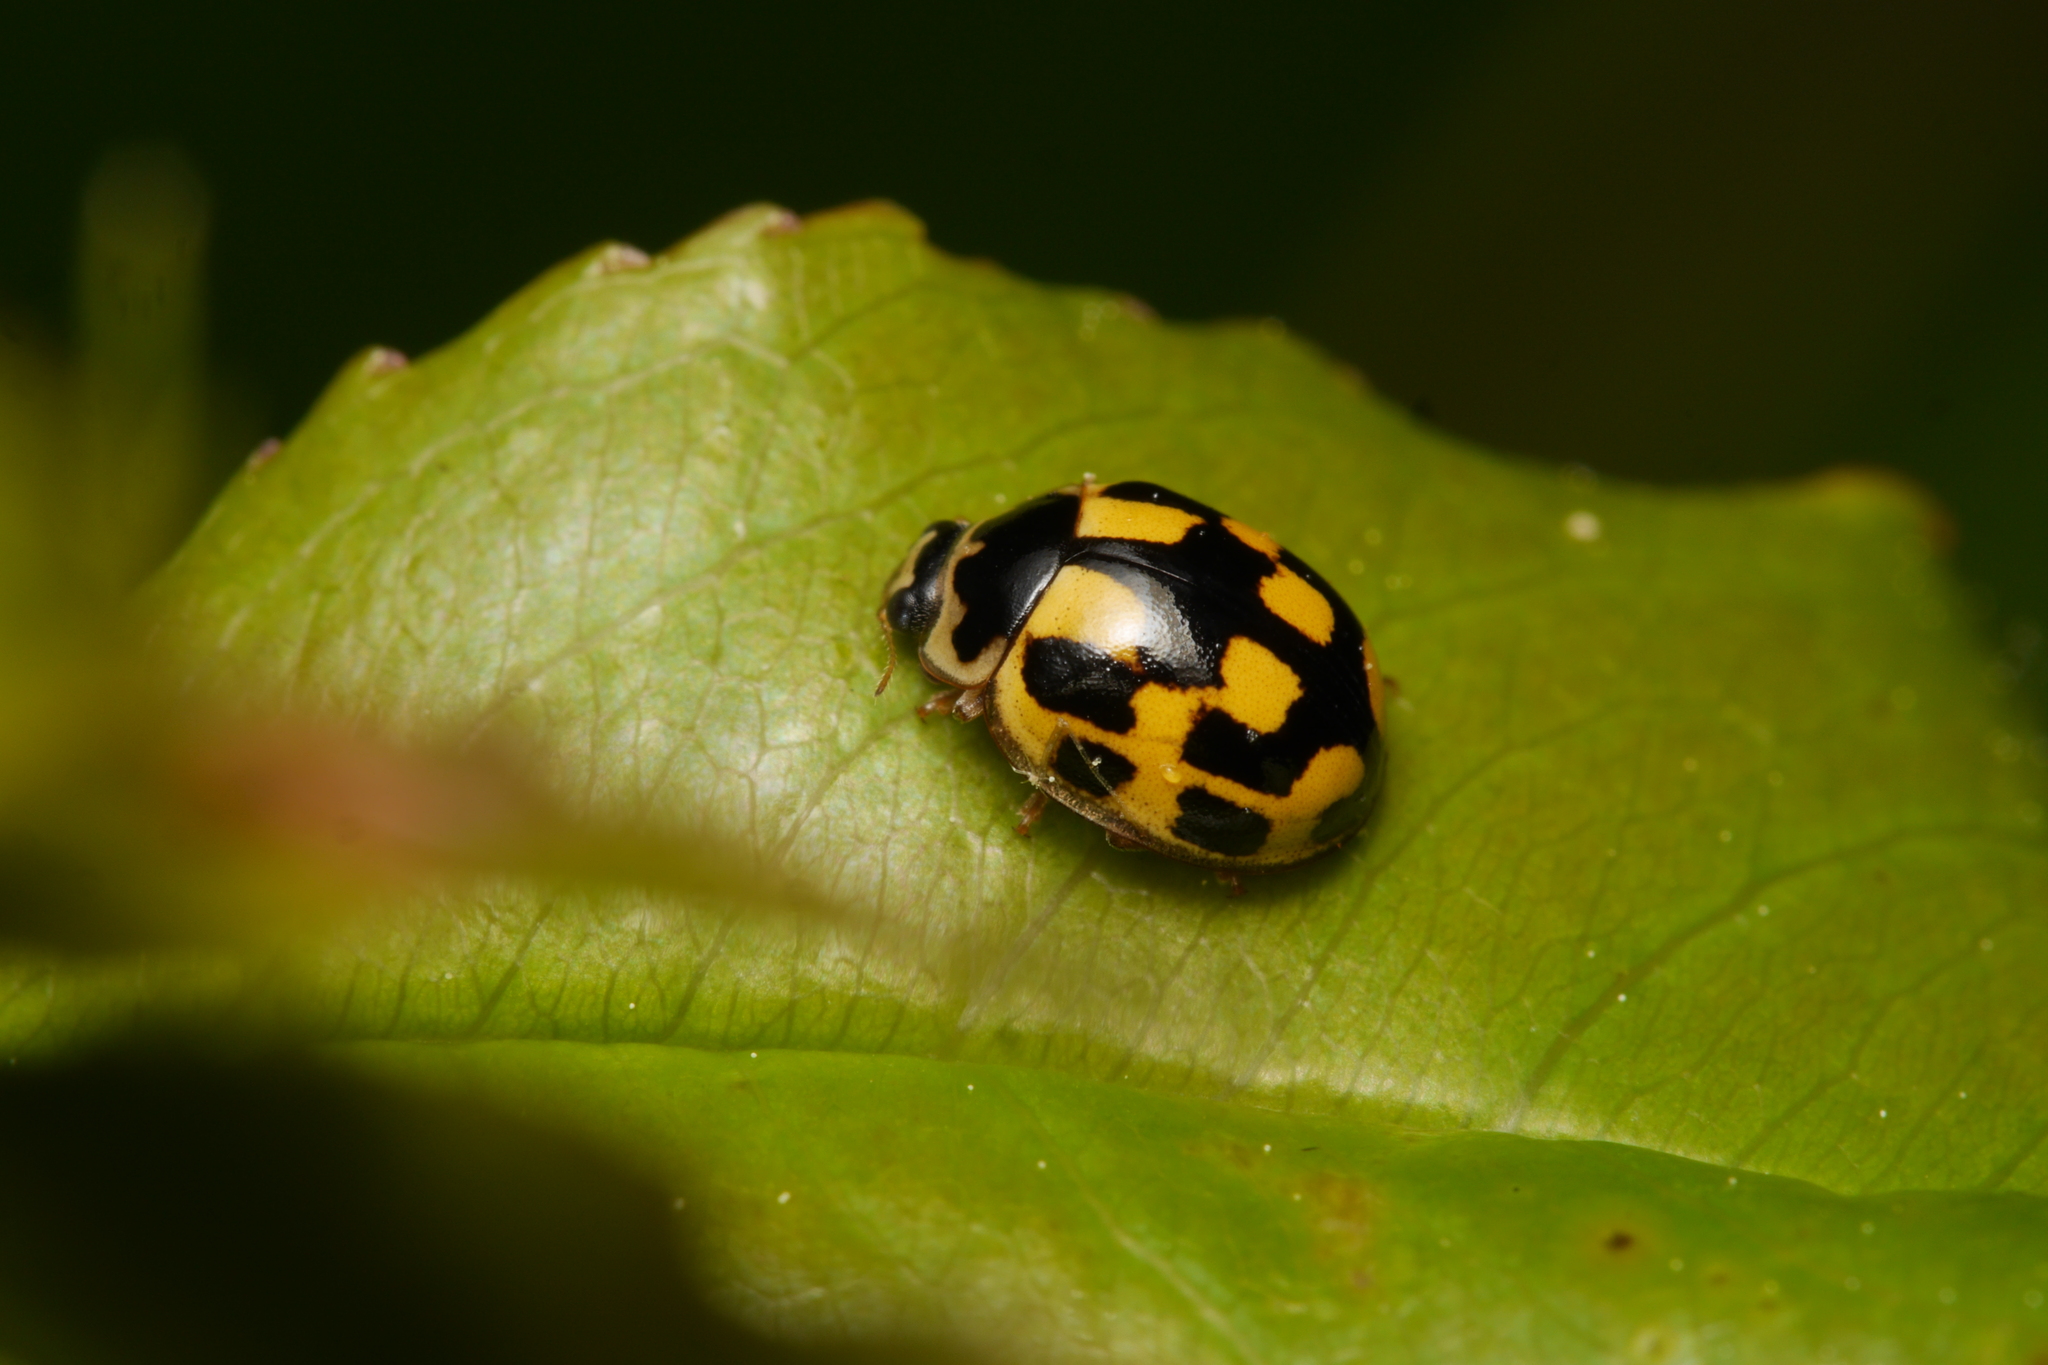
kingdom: Animalia
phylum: Arthropoda
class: Insecta
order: Coleoptera
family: Coccinellidae
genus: Propylaea
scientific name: Propylaea quatuordecimpunctata
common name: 14-spotted ladybird beetle
